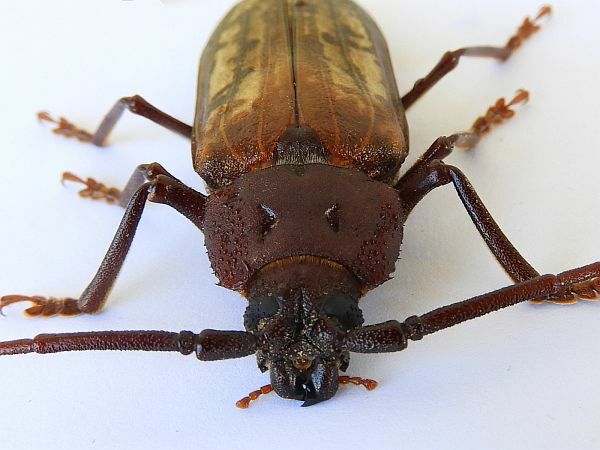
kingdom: Animalia
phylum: Arthropoda
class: Insecta
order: Coleoptera
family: Cerambycidae
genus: Trichocnemis
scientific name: Trichocnemis spiculatus
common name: Long-horned beetle
